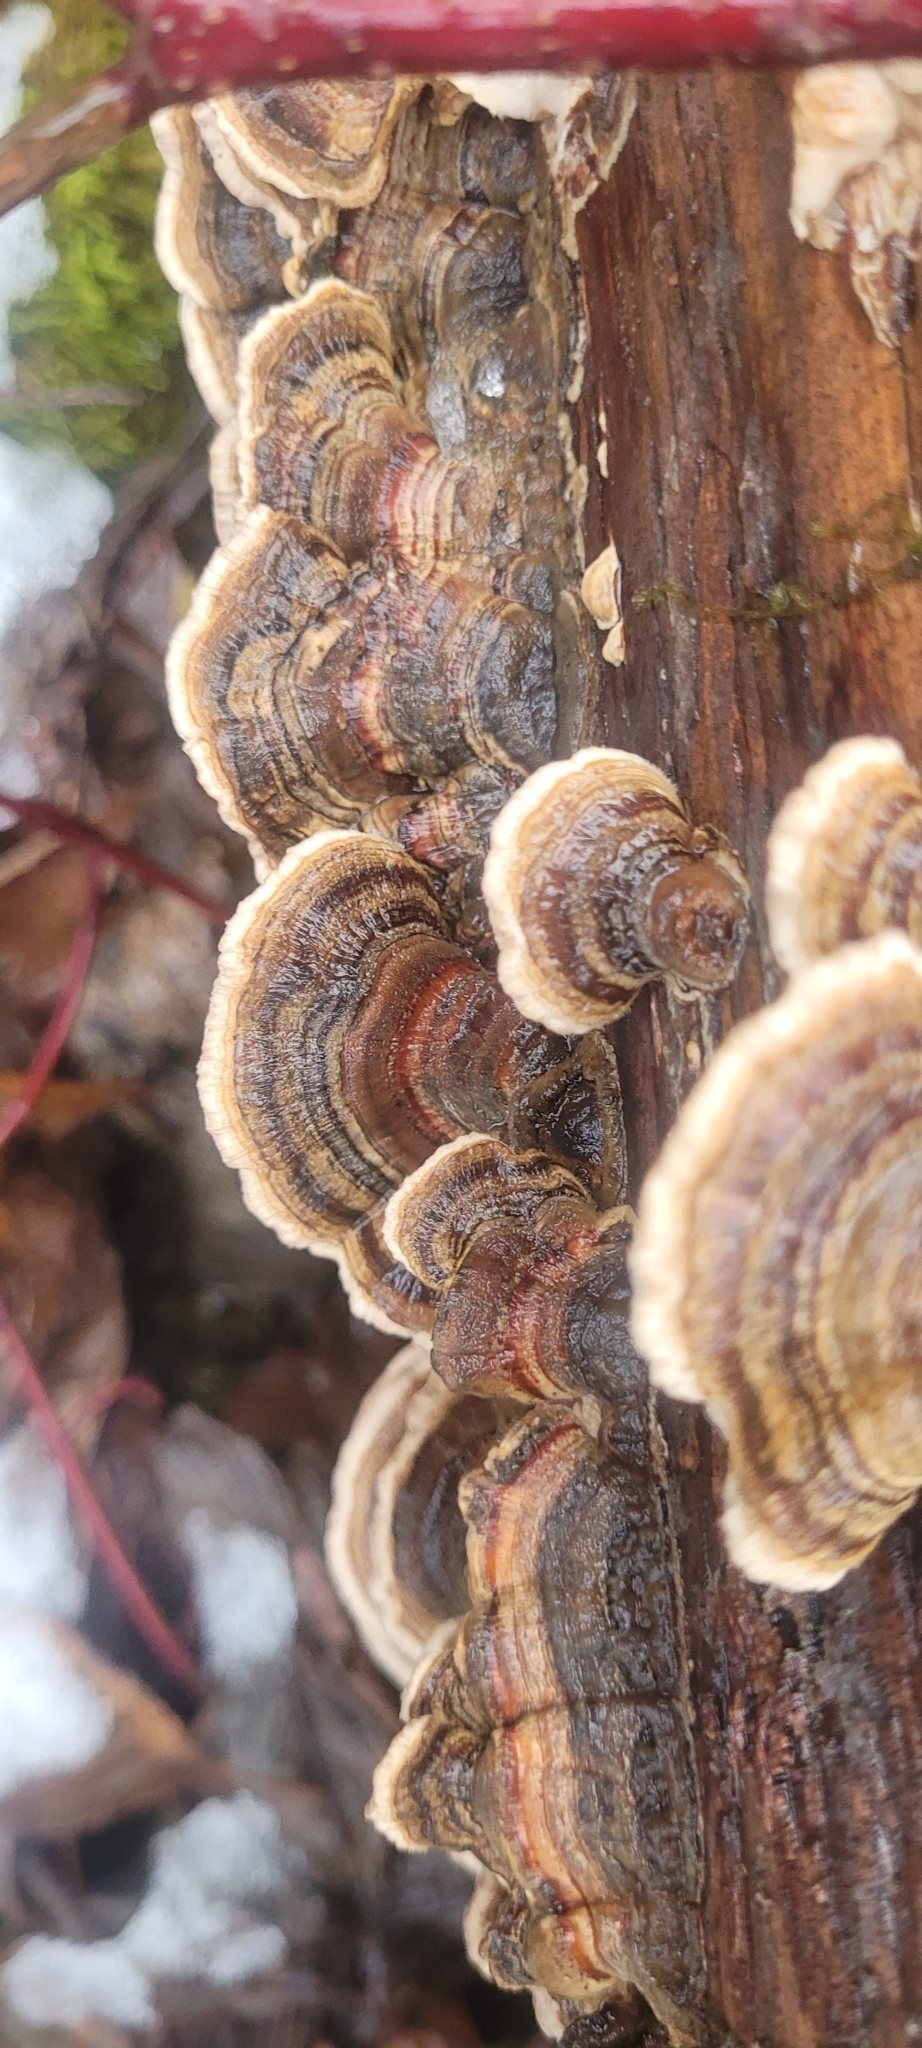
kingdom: Fungi
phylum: Basidiomycota
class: Agaricomycetes
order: Polyporales
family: Polyporaceae
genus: Trametes
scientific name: Trametes versicolor
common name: Turkeytail
